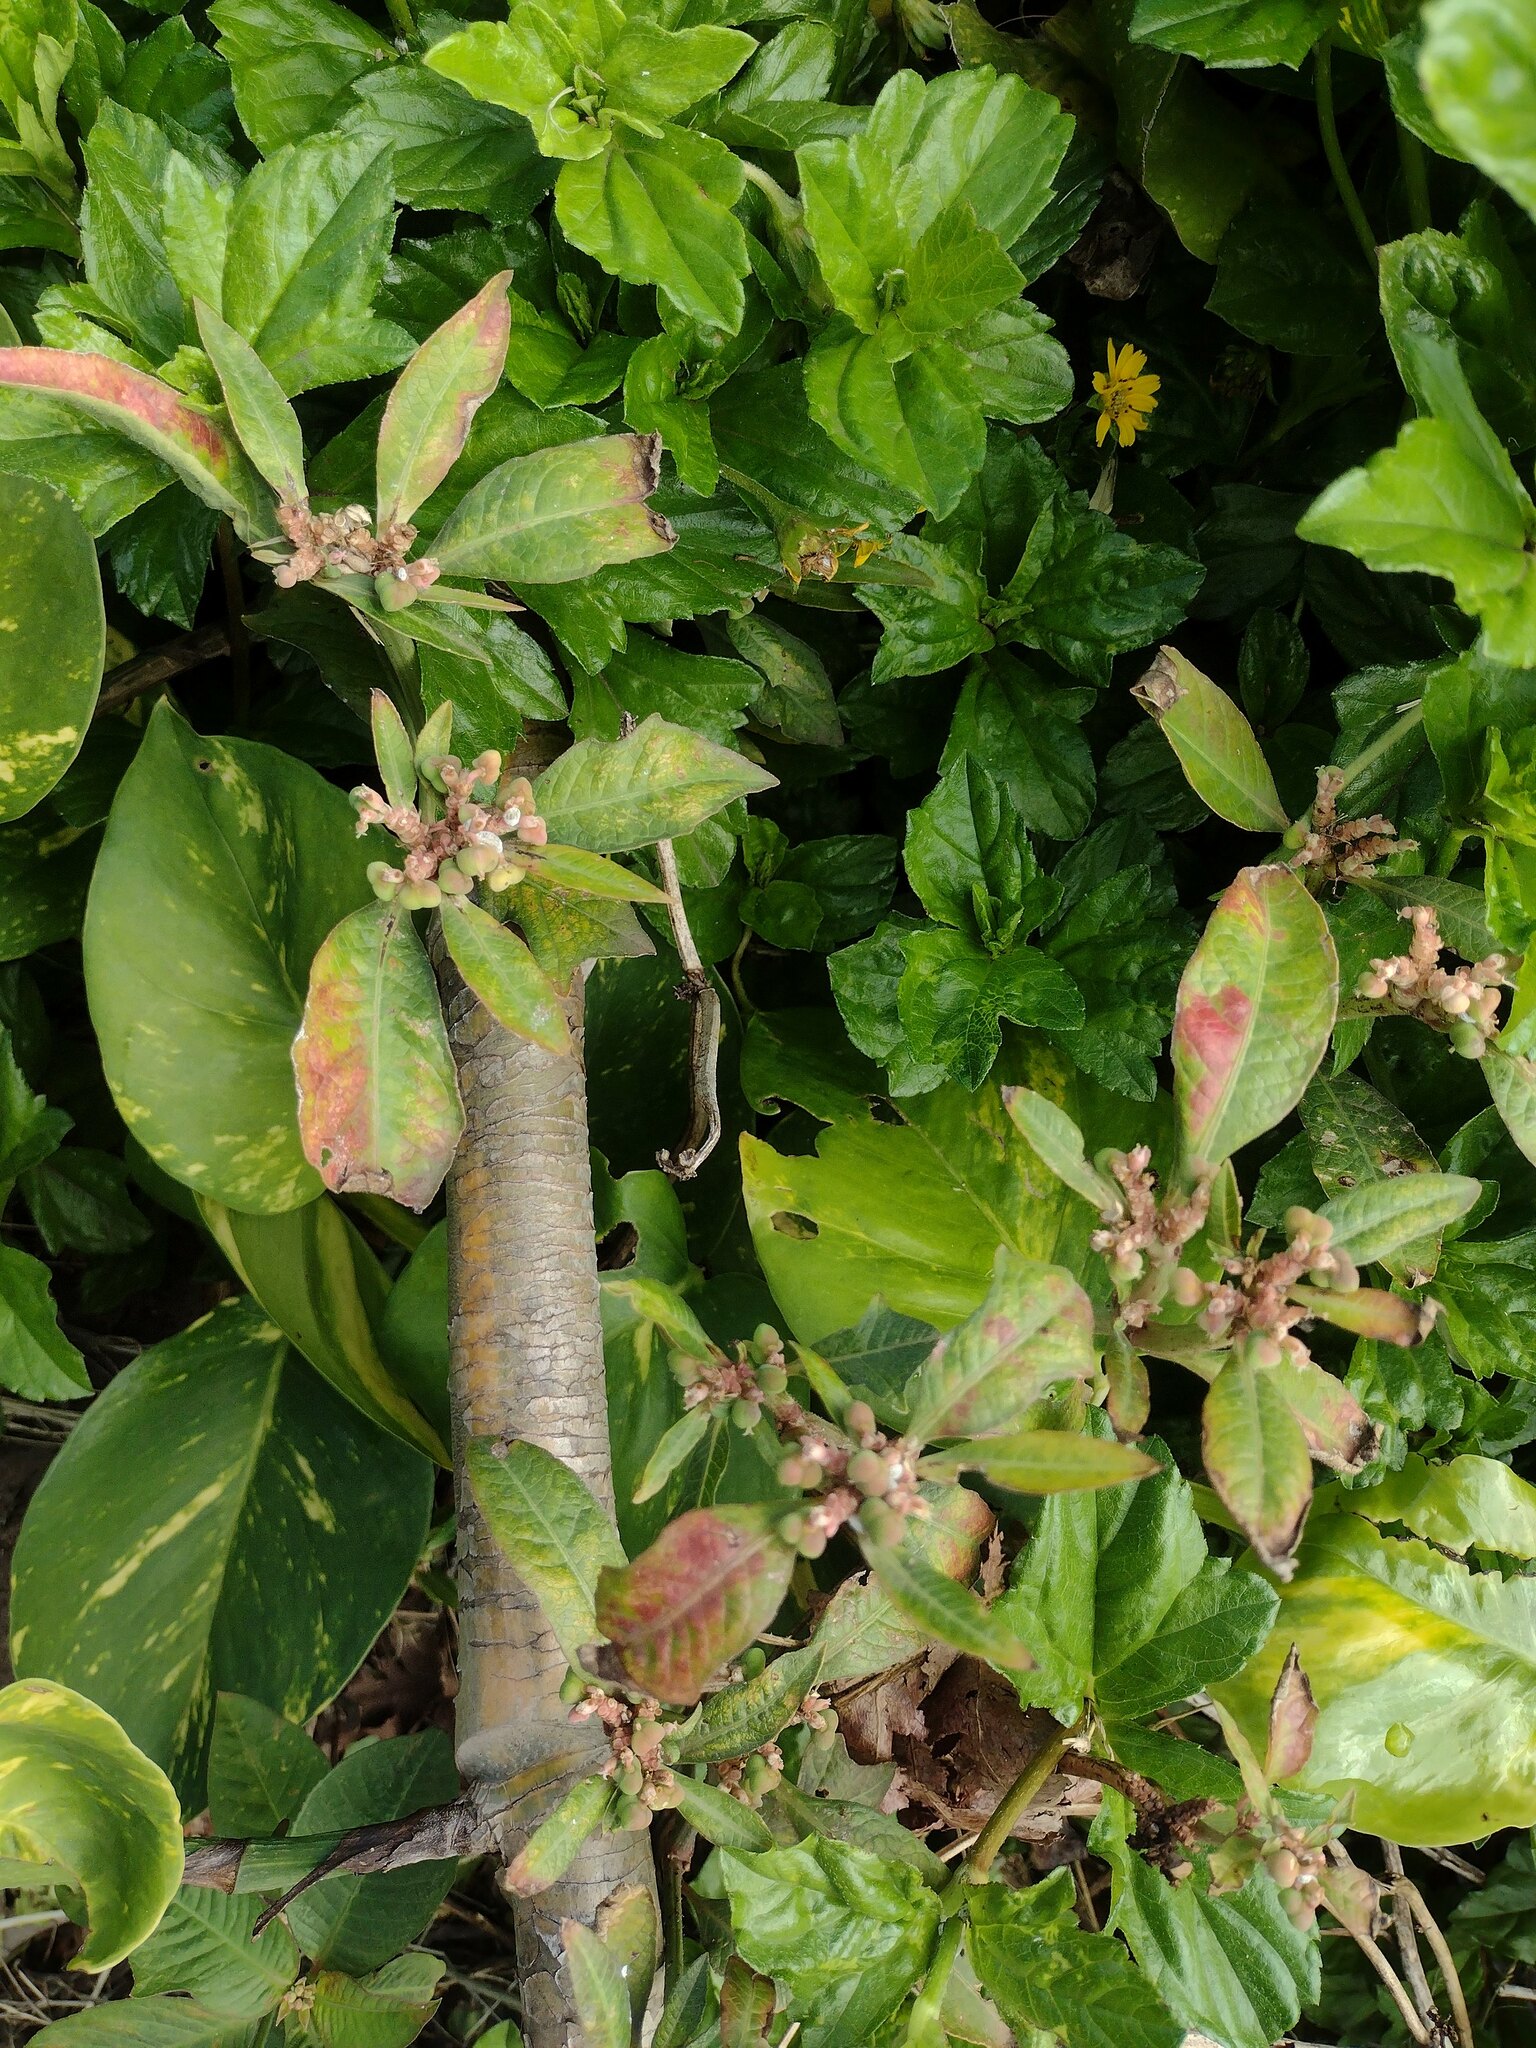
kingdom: Plantae
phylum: Tracheophyta
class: Magnoliopsida
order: Malpighiales
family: Euphorbiaceae
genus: Euphorbia
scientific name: Euphorbia heterophylla
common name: Mexican fireplant
